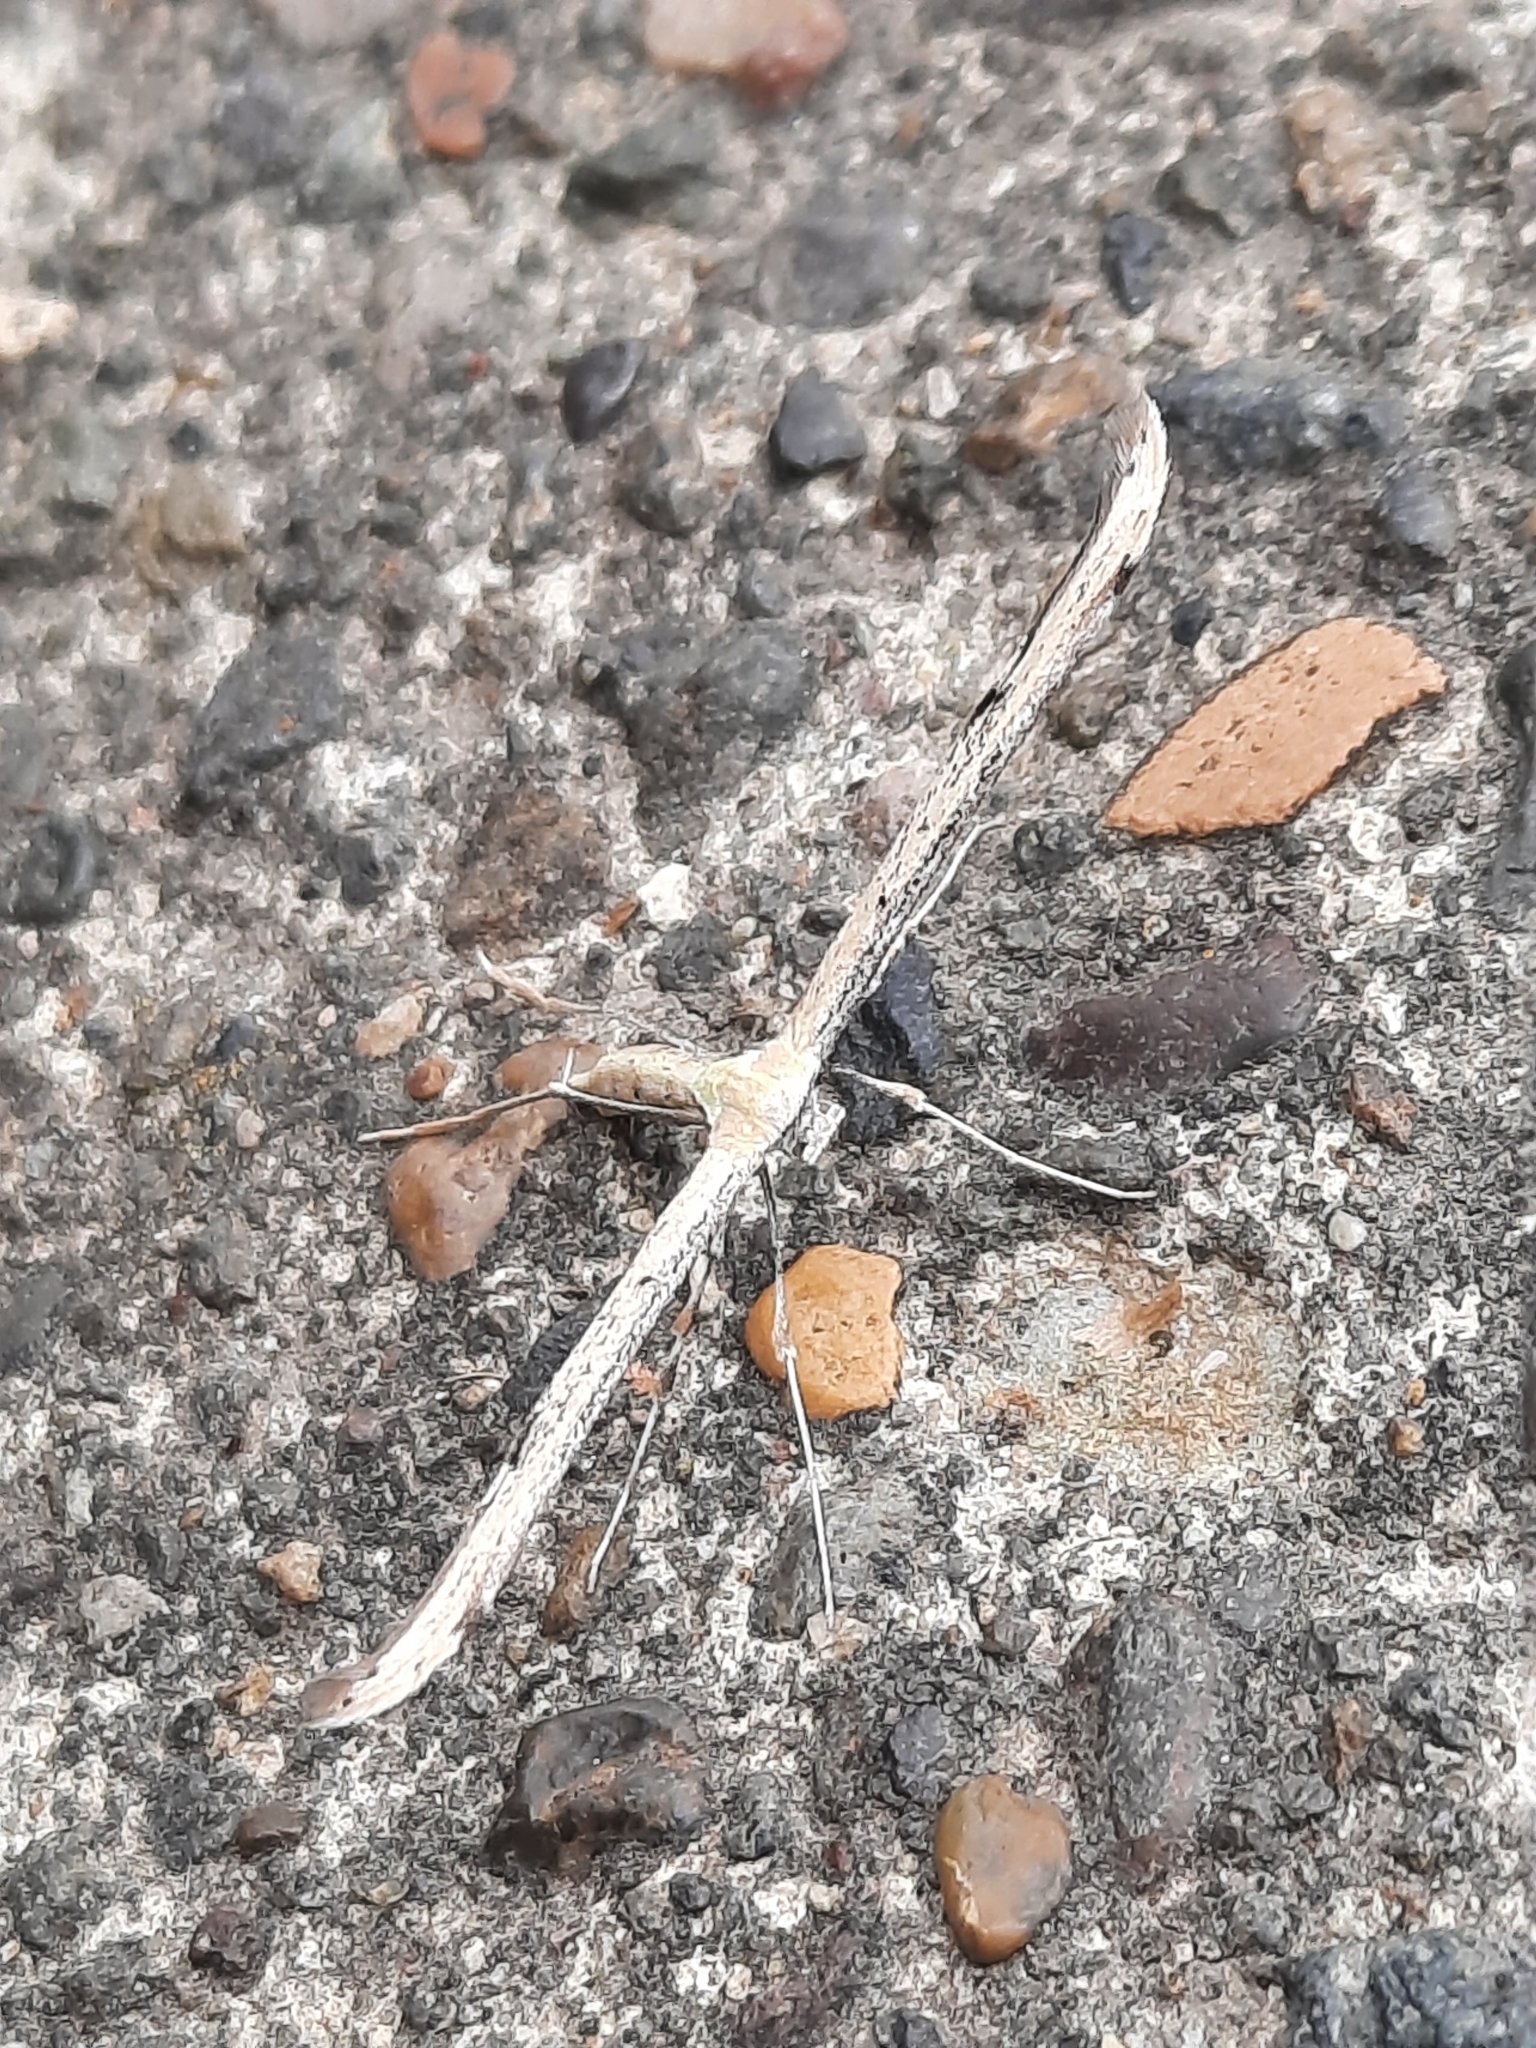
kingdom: Animalia
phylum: Arthropoda
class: Insecta
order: Lepidoptera
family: Pterophoridae
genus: Emmelina
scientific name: Emmelina monodactyla
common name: Common plume
